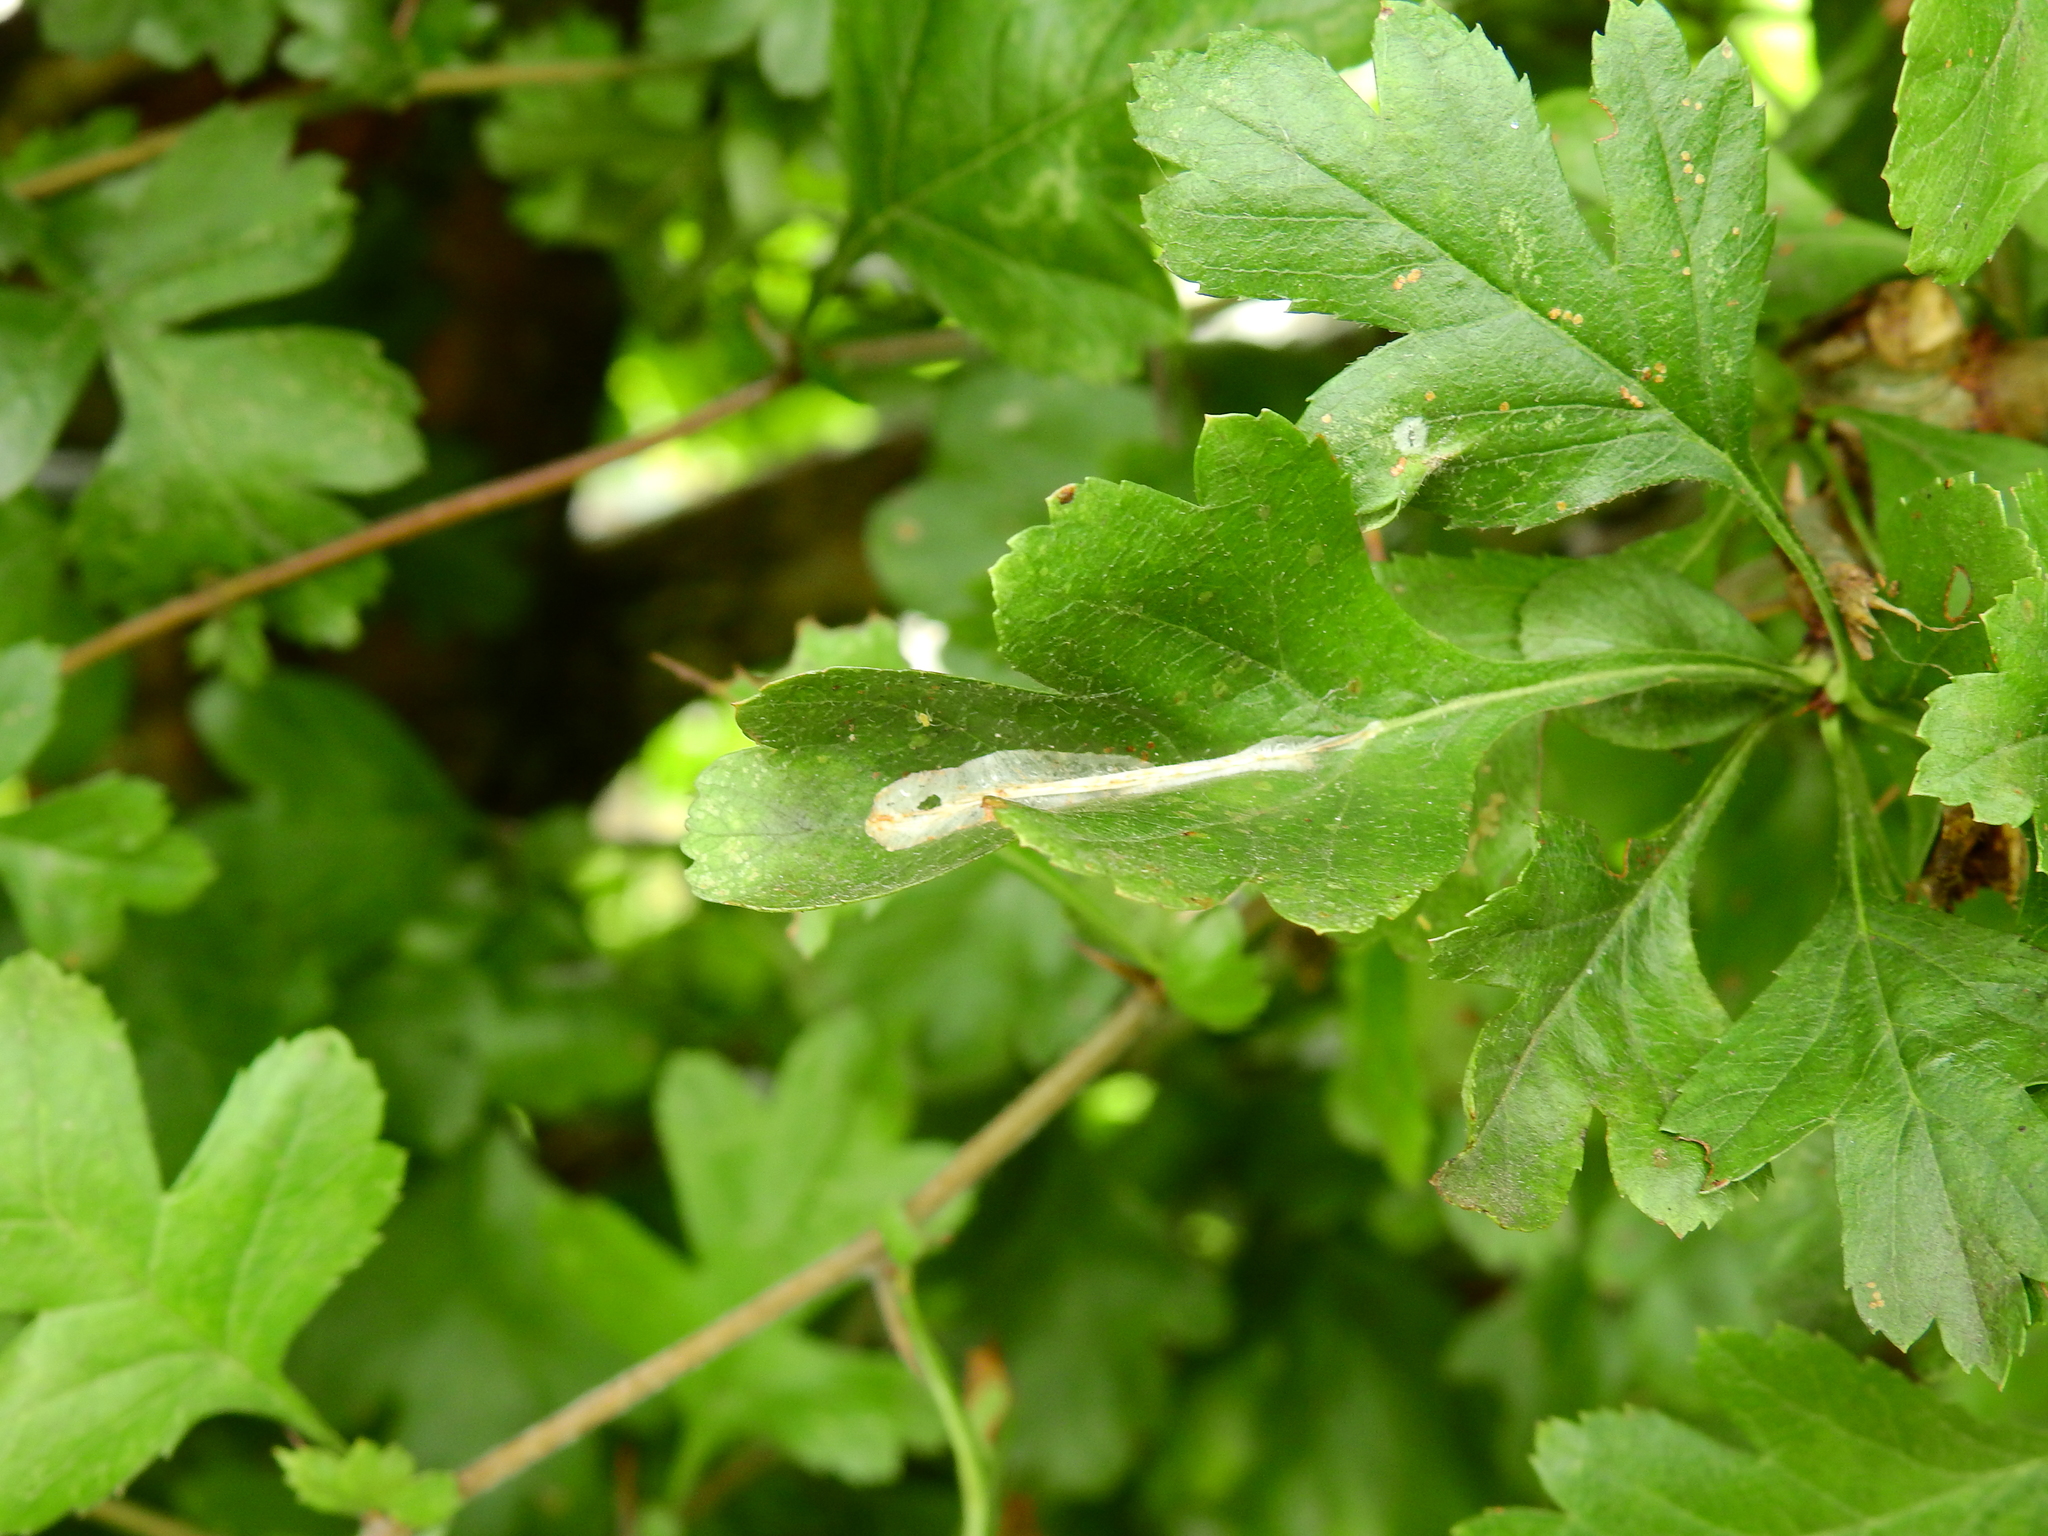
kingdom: Animalia
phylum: Arthropoda
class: Insecta
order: Lepidoptera
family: Gracillariidae
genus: Phyllonorycter
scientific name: Phyllonorycter leucographella
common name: Firethorn leaf-miner
